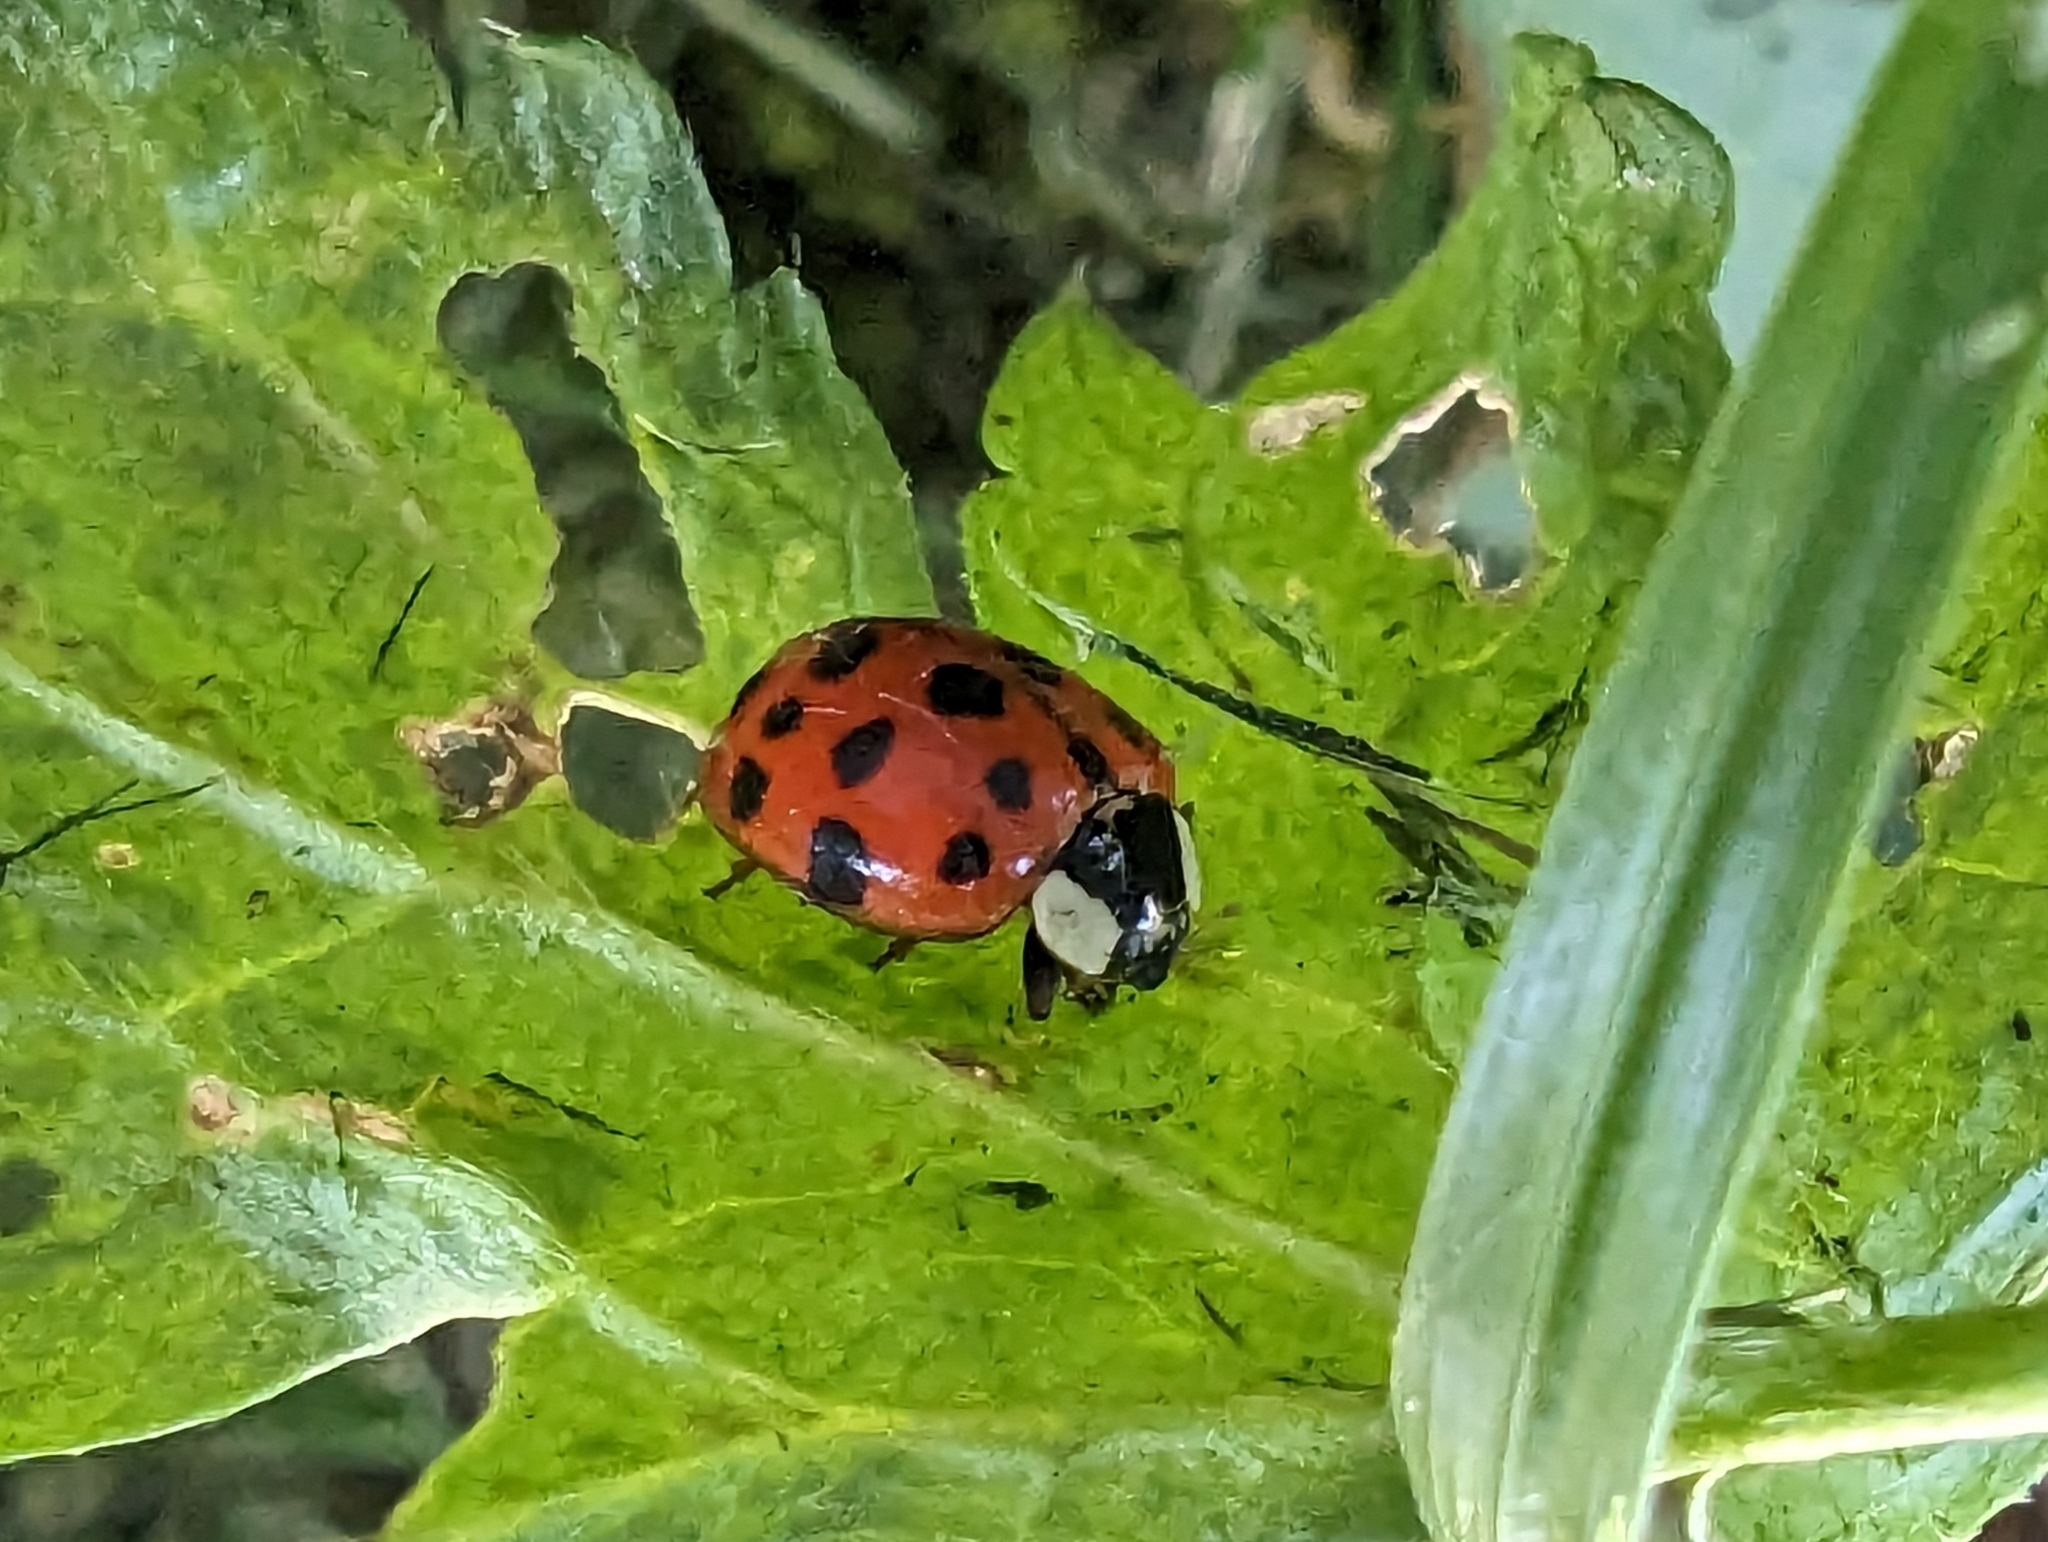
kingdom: Animalia
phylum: Arthropoda
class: Insecta
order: Coleoptera
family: Coccinellidae
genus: Harmonia
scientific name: Harmonia axyridis
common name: Harlequin ladybird
